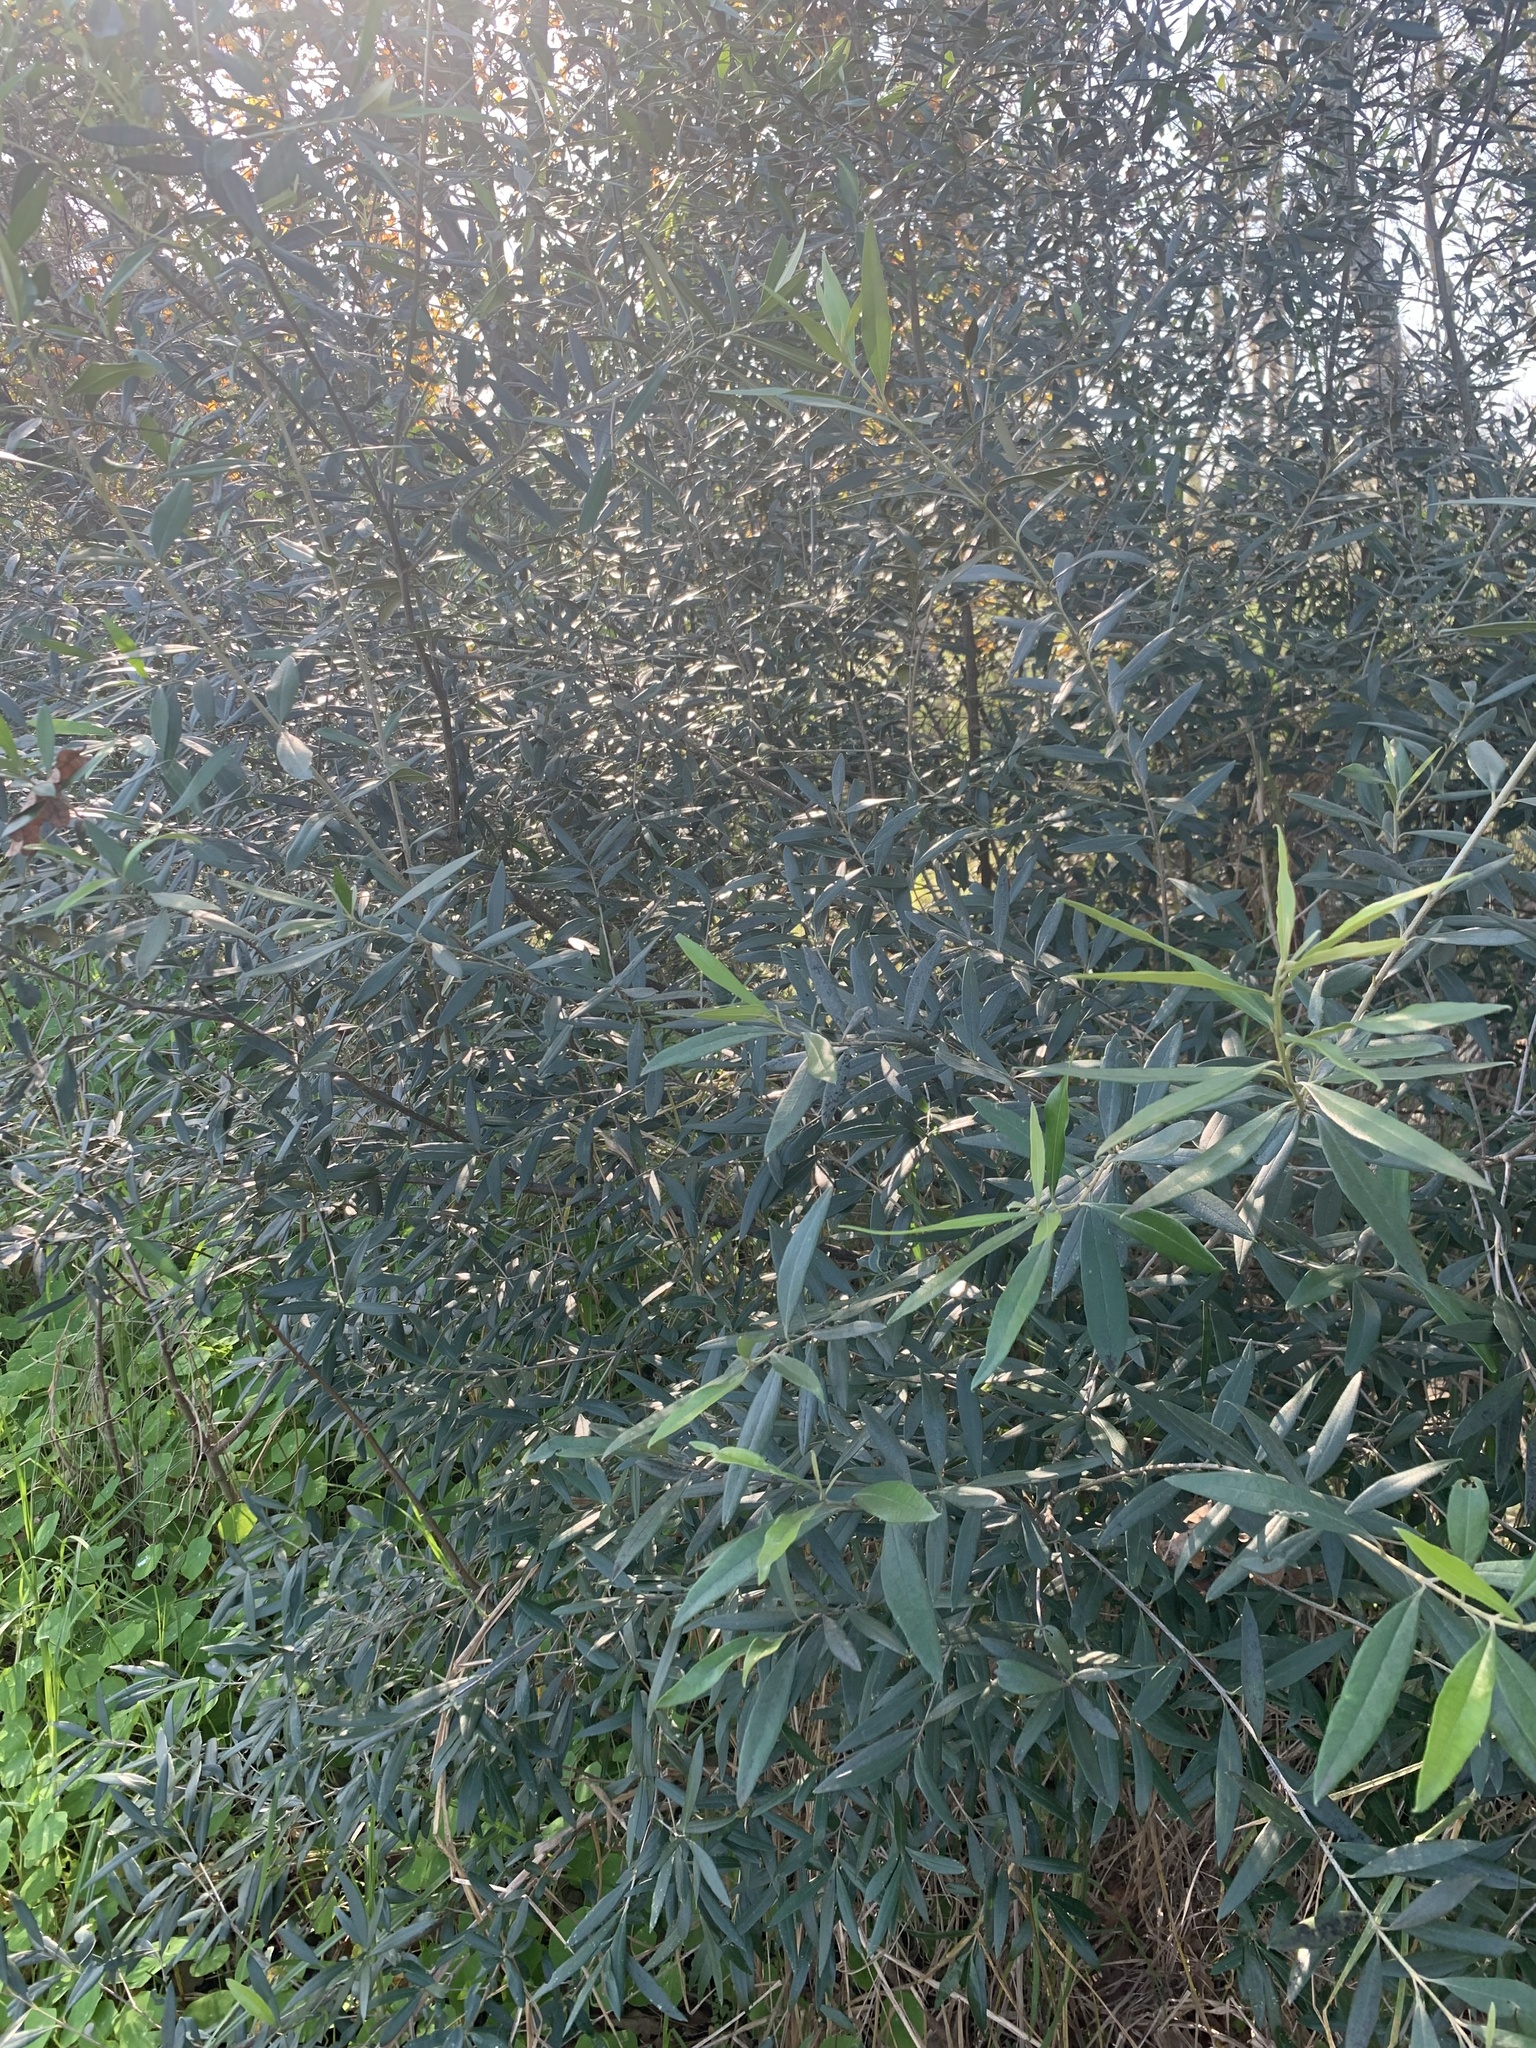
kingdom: Plantae
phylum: Tracheophyta
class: Magnoliopsida
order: Lamiales
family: Oleaceae
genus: Olea
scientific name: Olea europaea
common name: Olive
